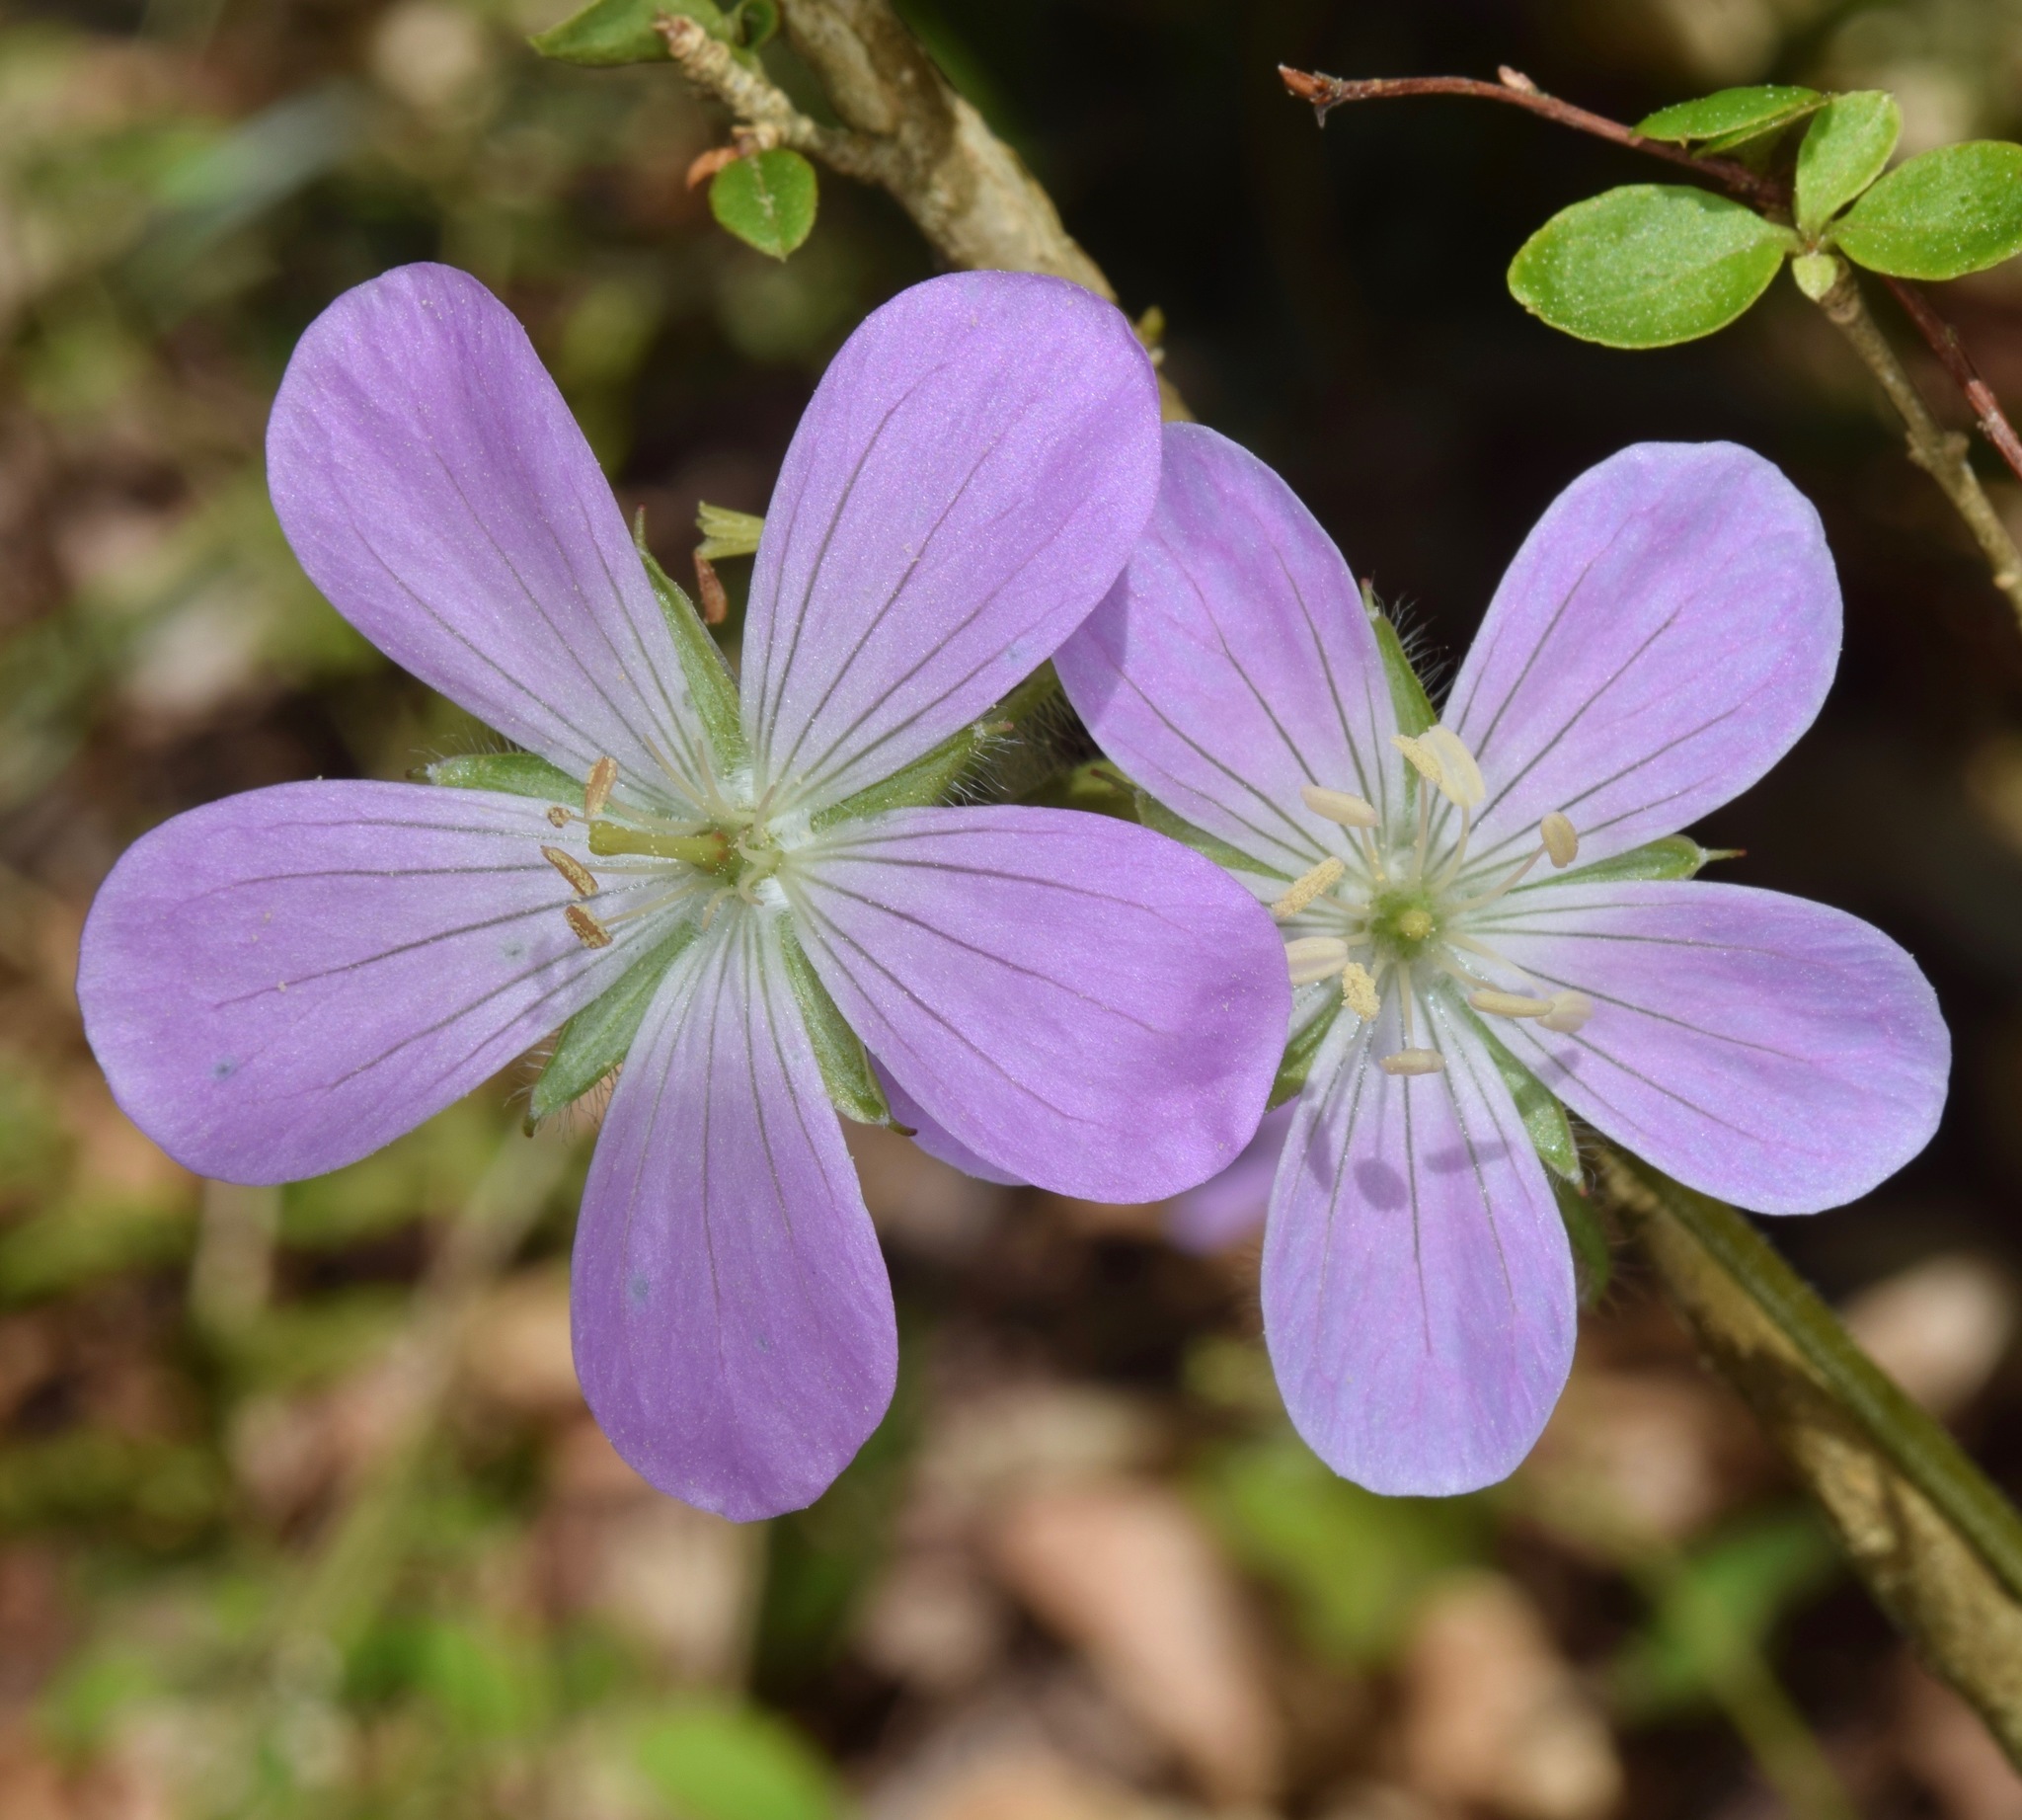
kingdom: Plantae
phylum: Tracheophyta
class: Magnoliopsida
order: Geraniales
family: Geraniaceae
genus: Geranium
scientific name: Geranium maculatum
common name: Spotted geranium
